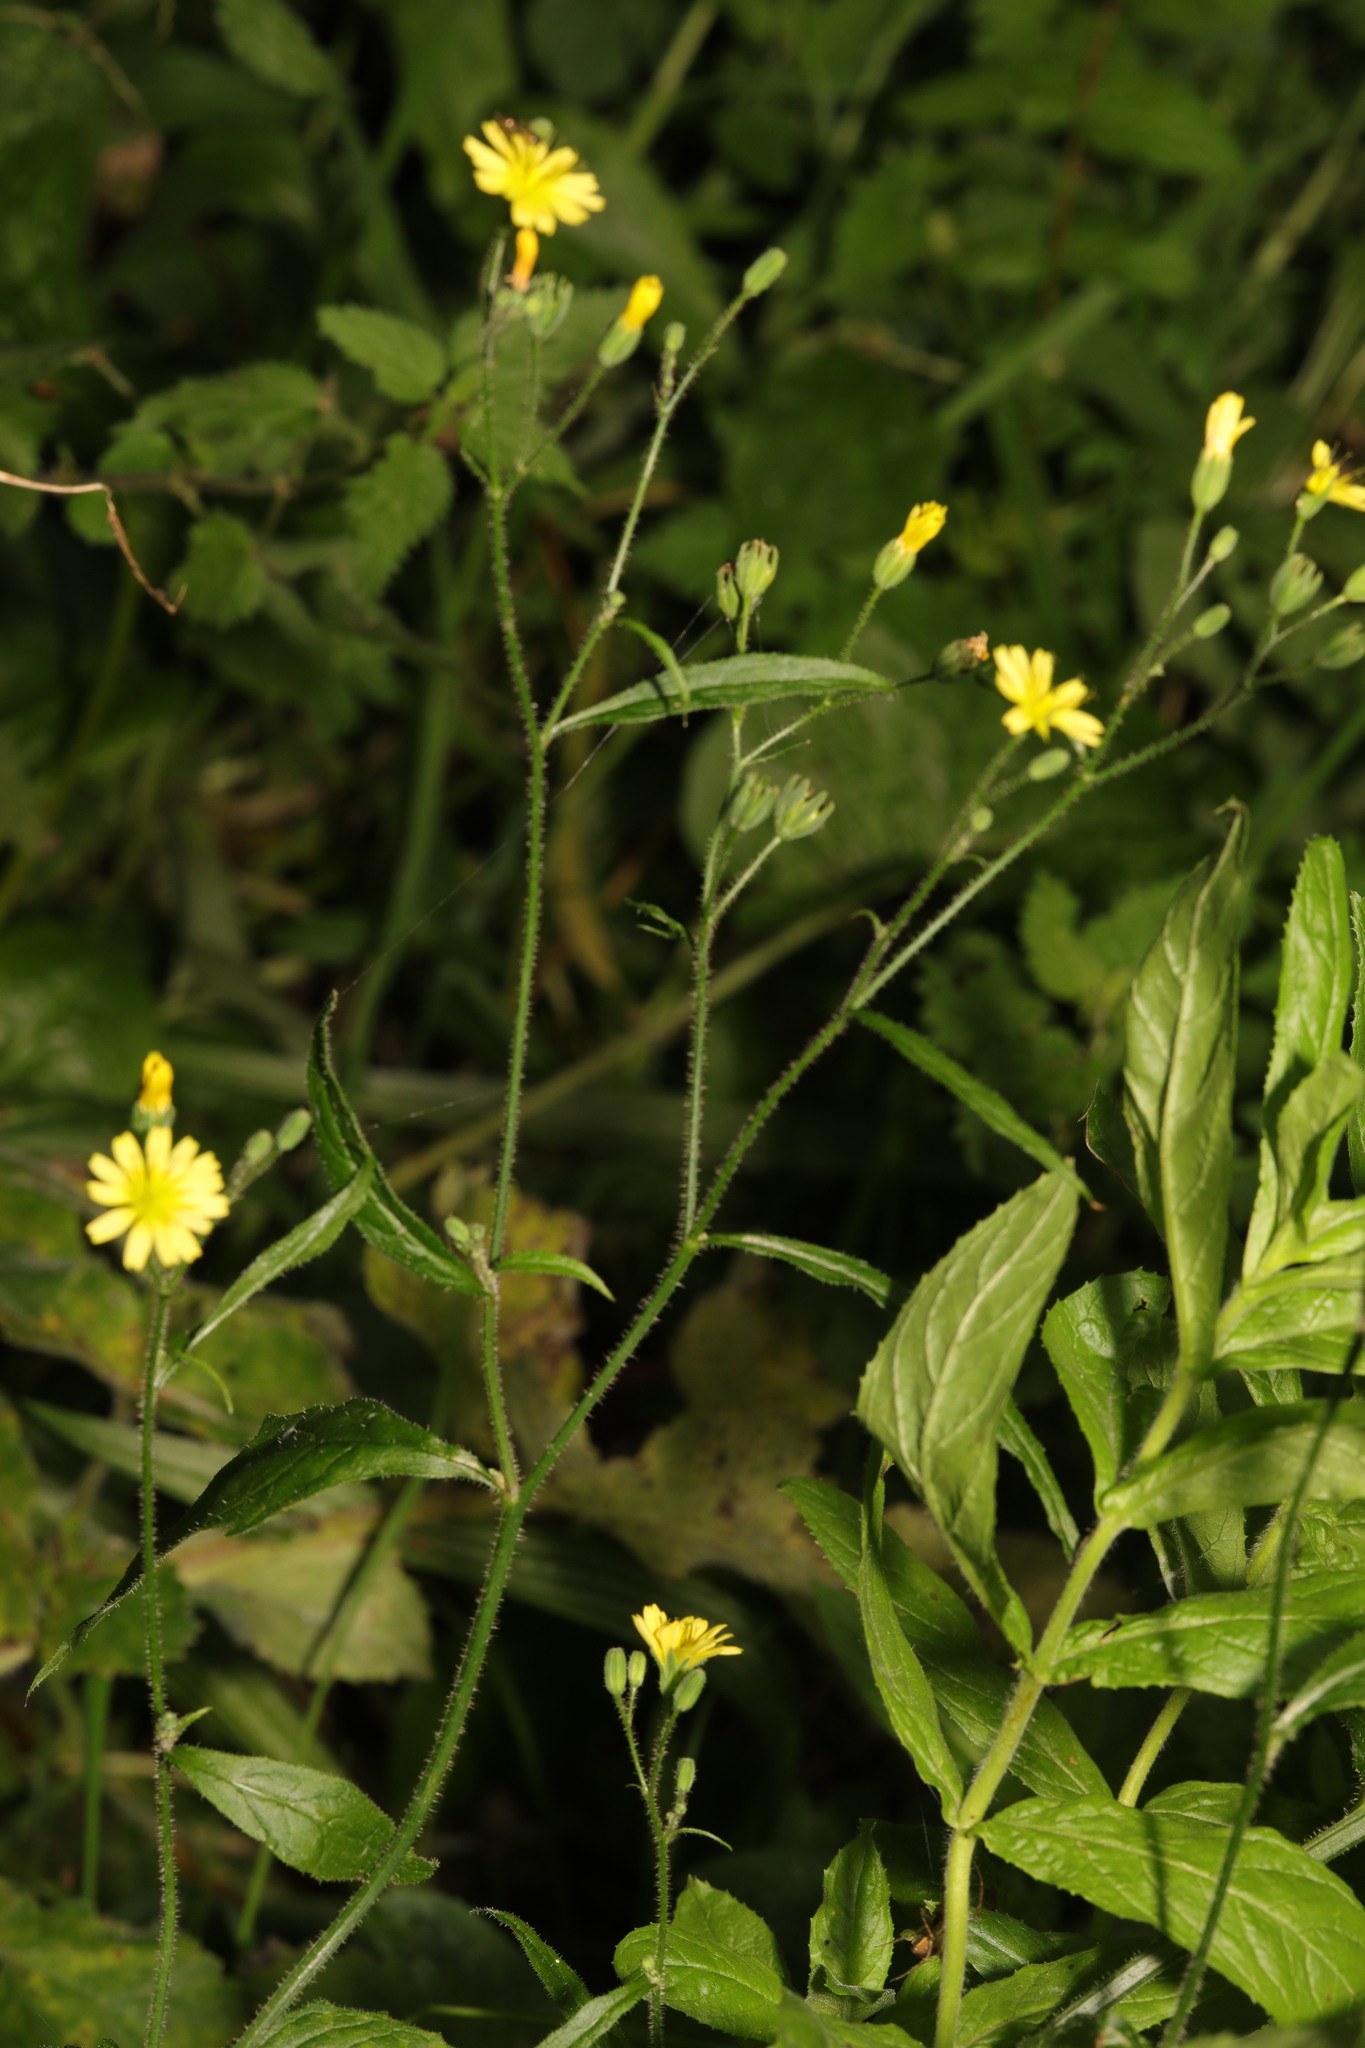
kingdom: Plantae
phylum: Tracheophyta
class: Magnoliopsida
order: Asterales
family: Asteraceae
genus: Lapsana
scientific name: Lapsana communis
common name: Nipplewort
